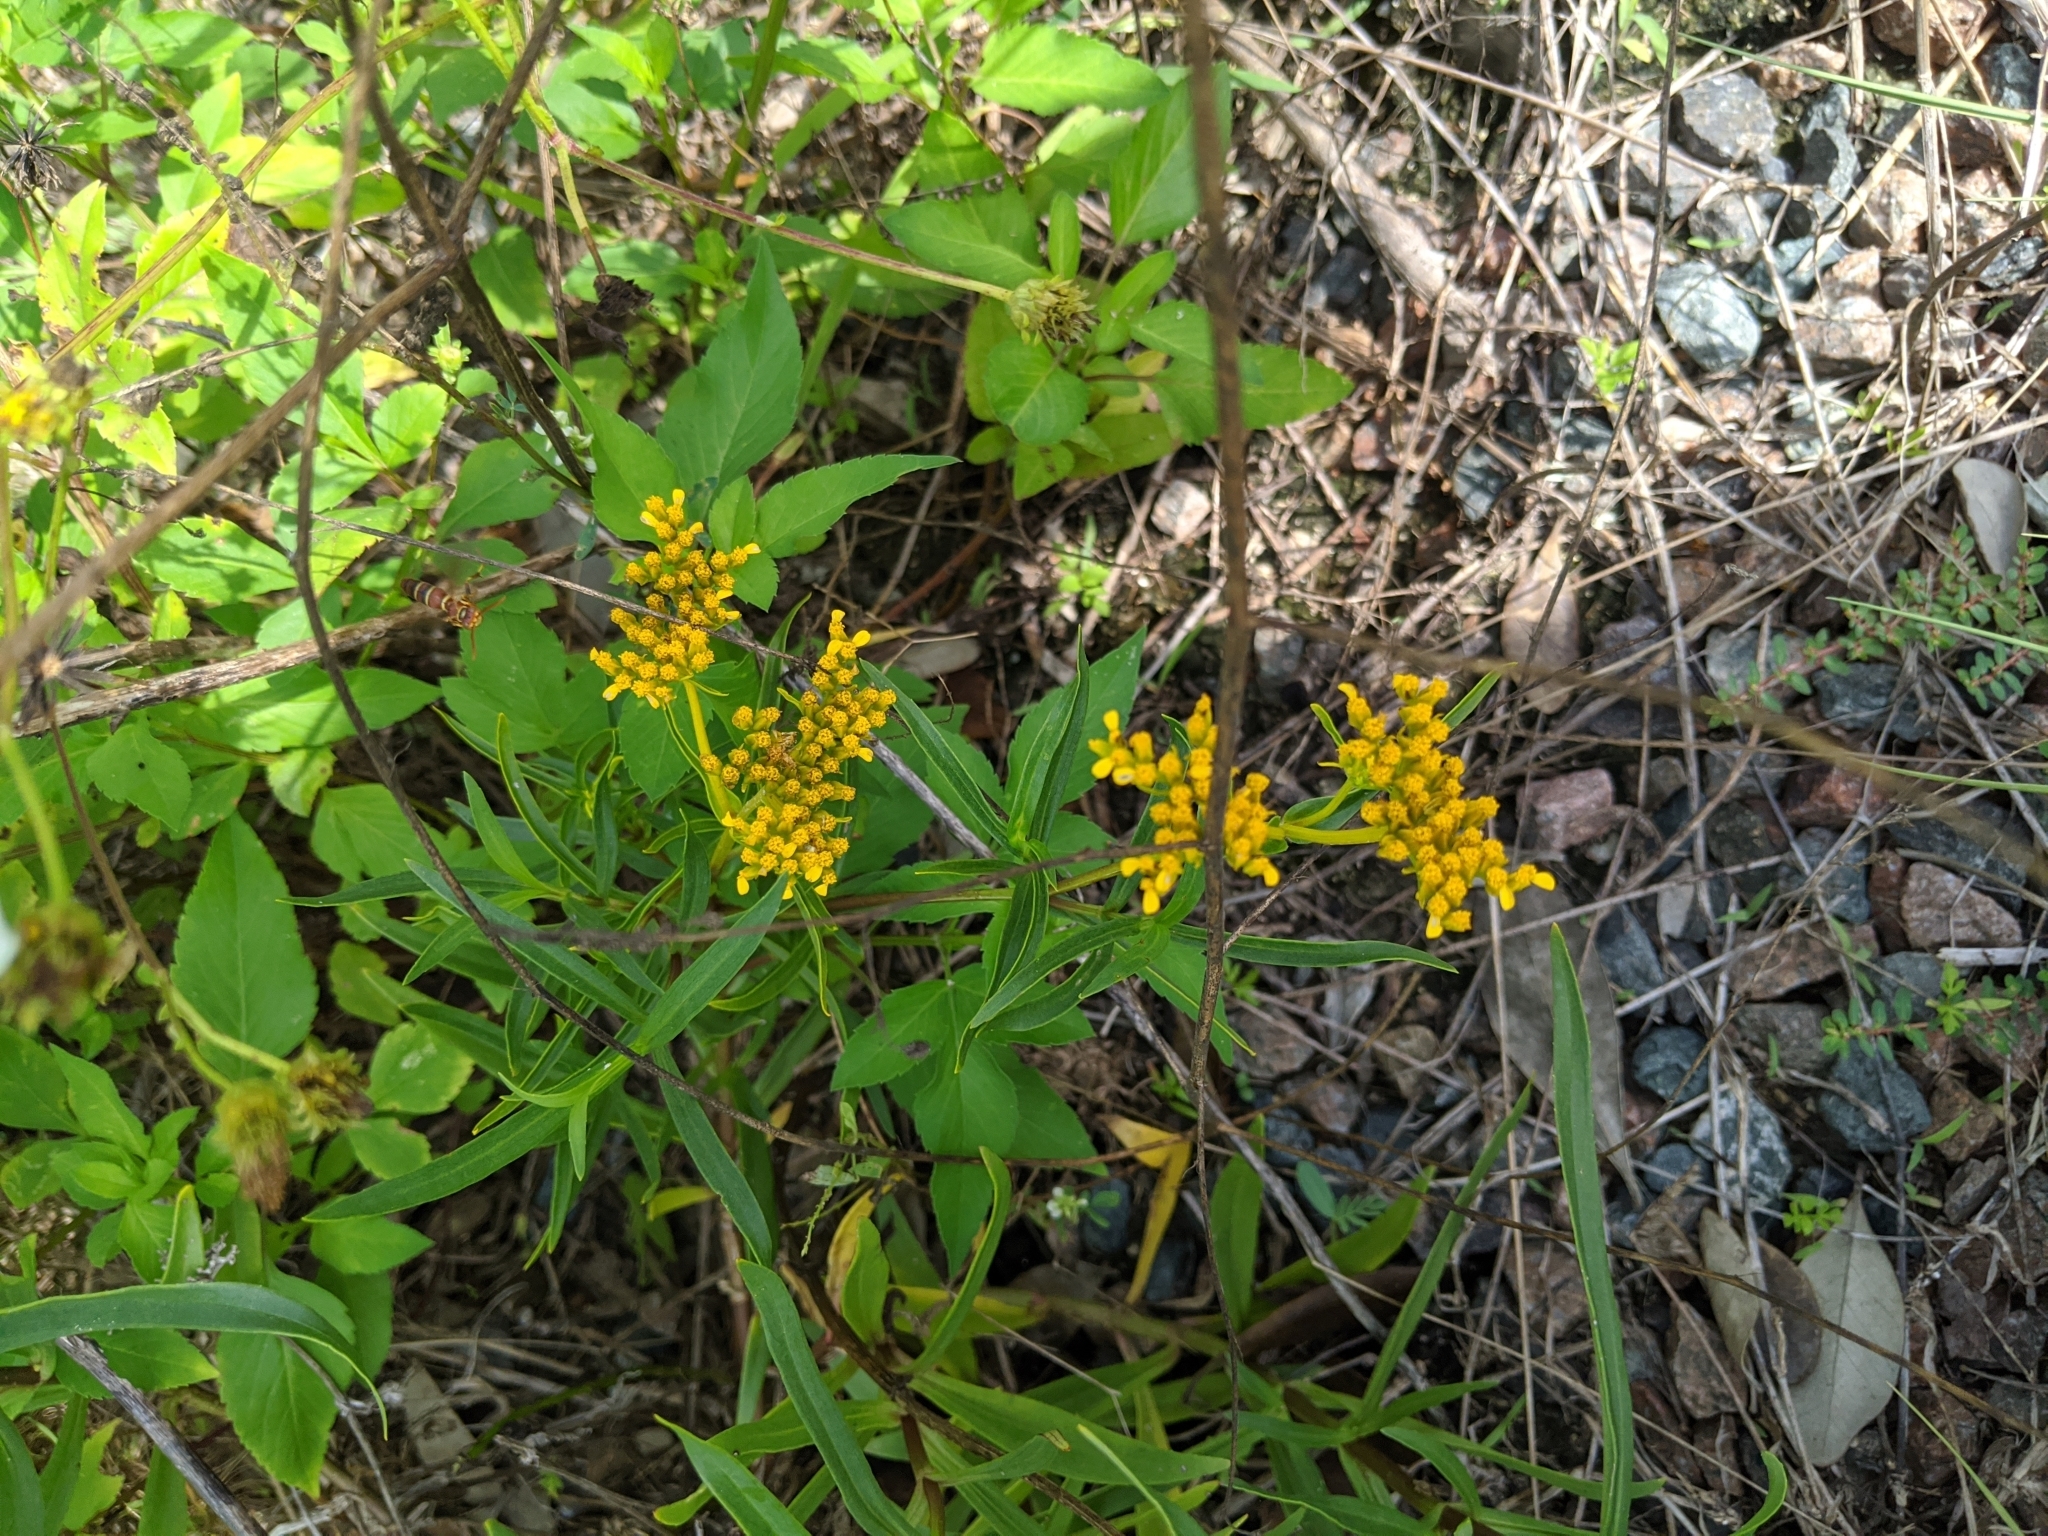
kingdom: Plantae
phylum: Tracheophyta
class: Magnoliopsida
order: Asterales
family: Asteraceae
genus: Flaveria
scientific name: Flaveria linearis
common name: Yellowtop
